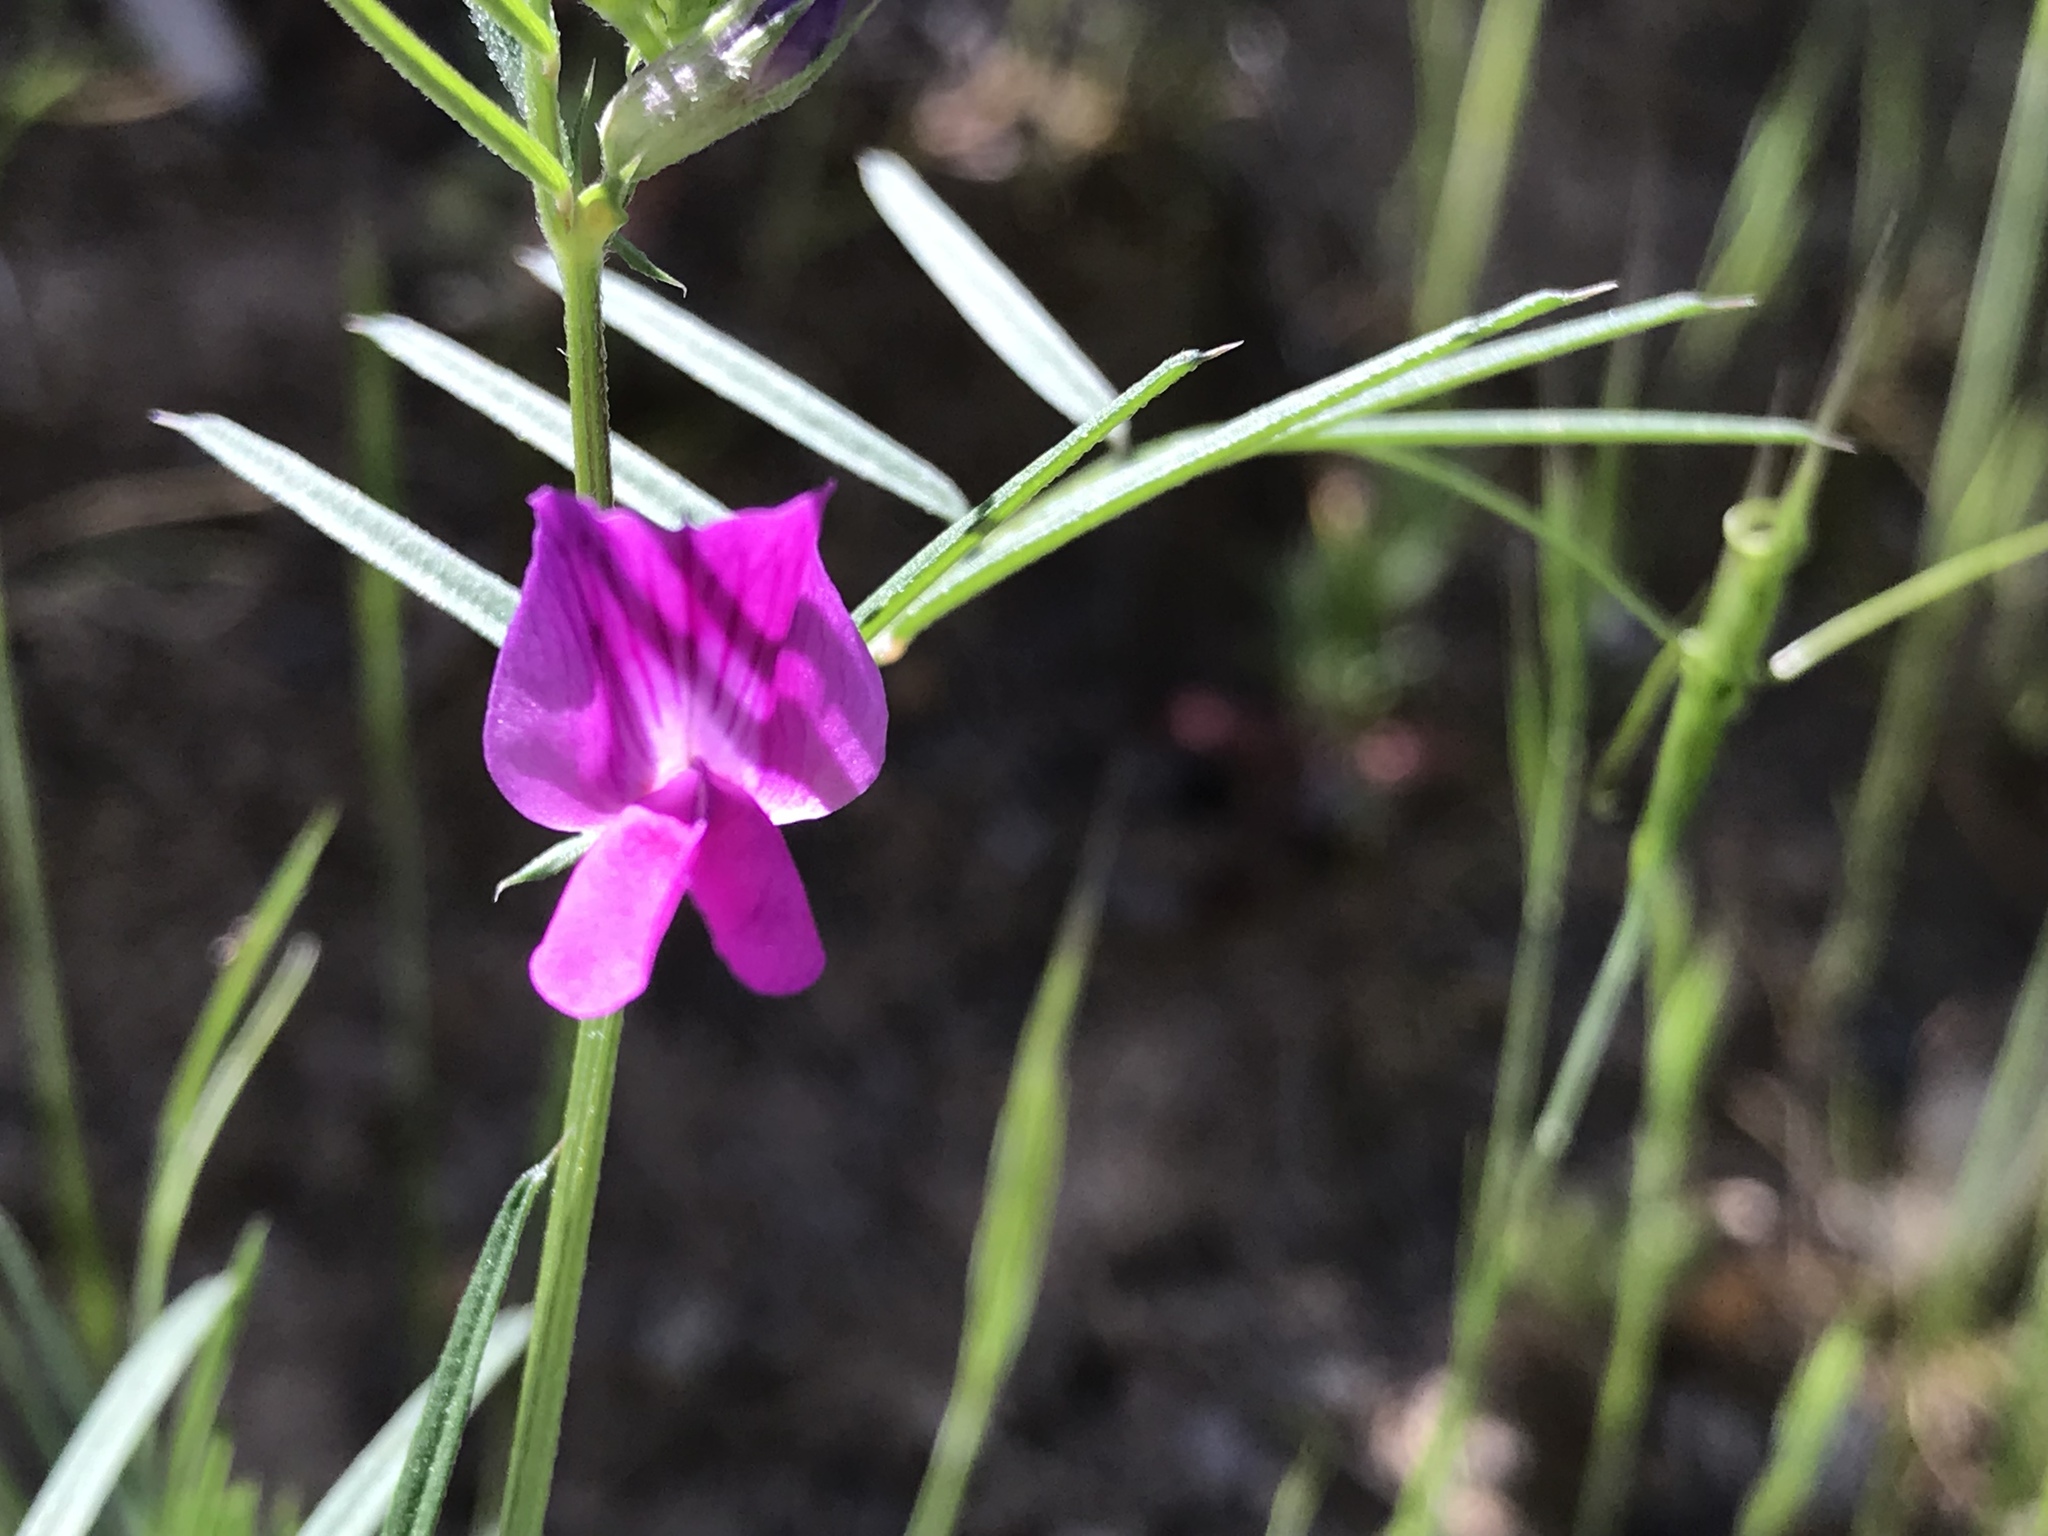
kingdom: Plantae
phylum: Tracheophyta
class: Magnoliopsida
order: Fabales
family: Fabaceae
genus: Vicia
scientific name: Vicia sativa
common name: Garden vetch
